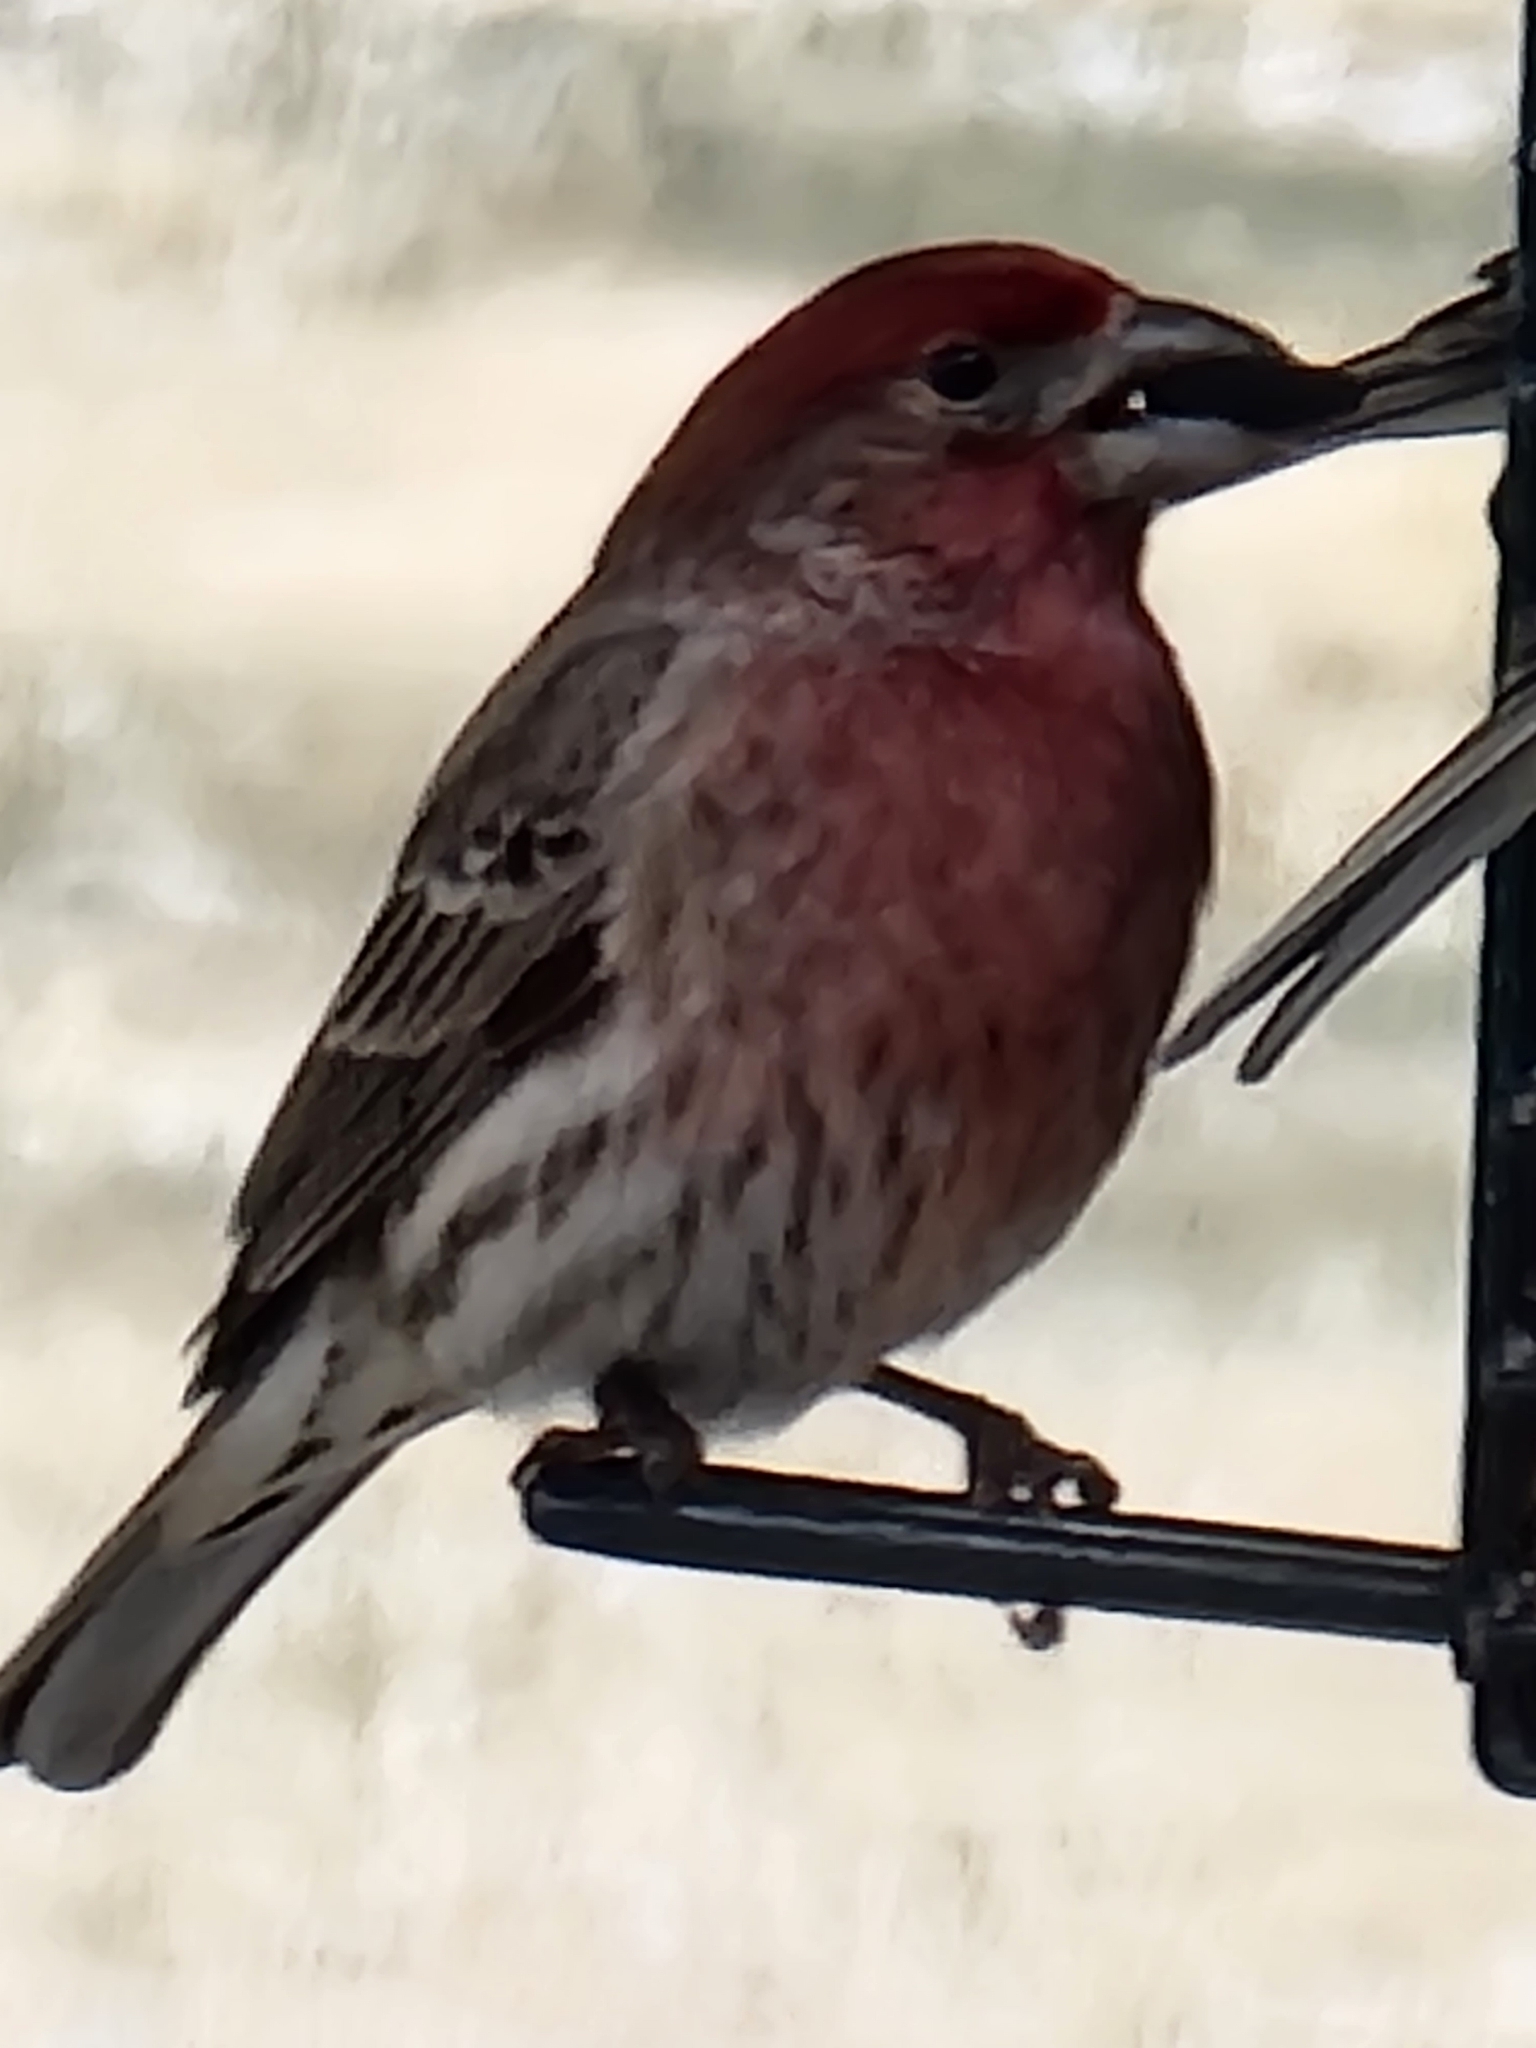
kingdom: Animalia
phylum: Chordata
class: Aves
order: Passeriformes
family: Fringillidae
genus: Haemorhous
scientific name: Haemorhous mexicanus
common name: House finch
